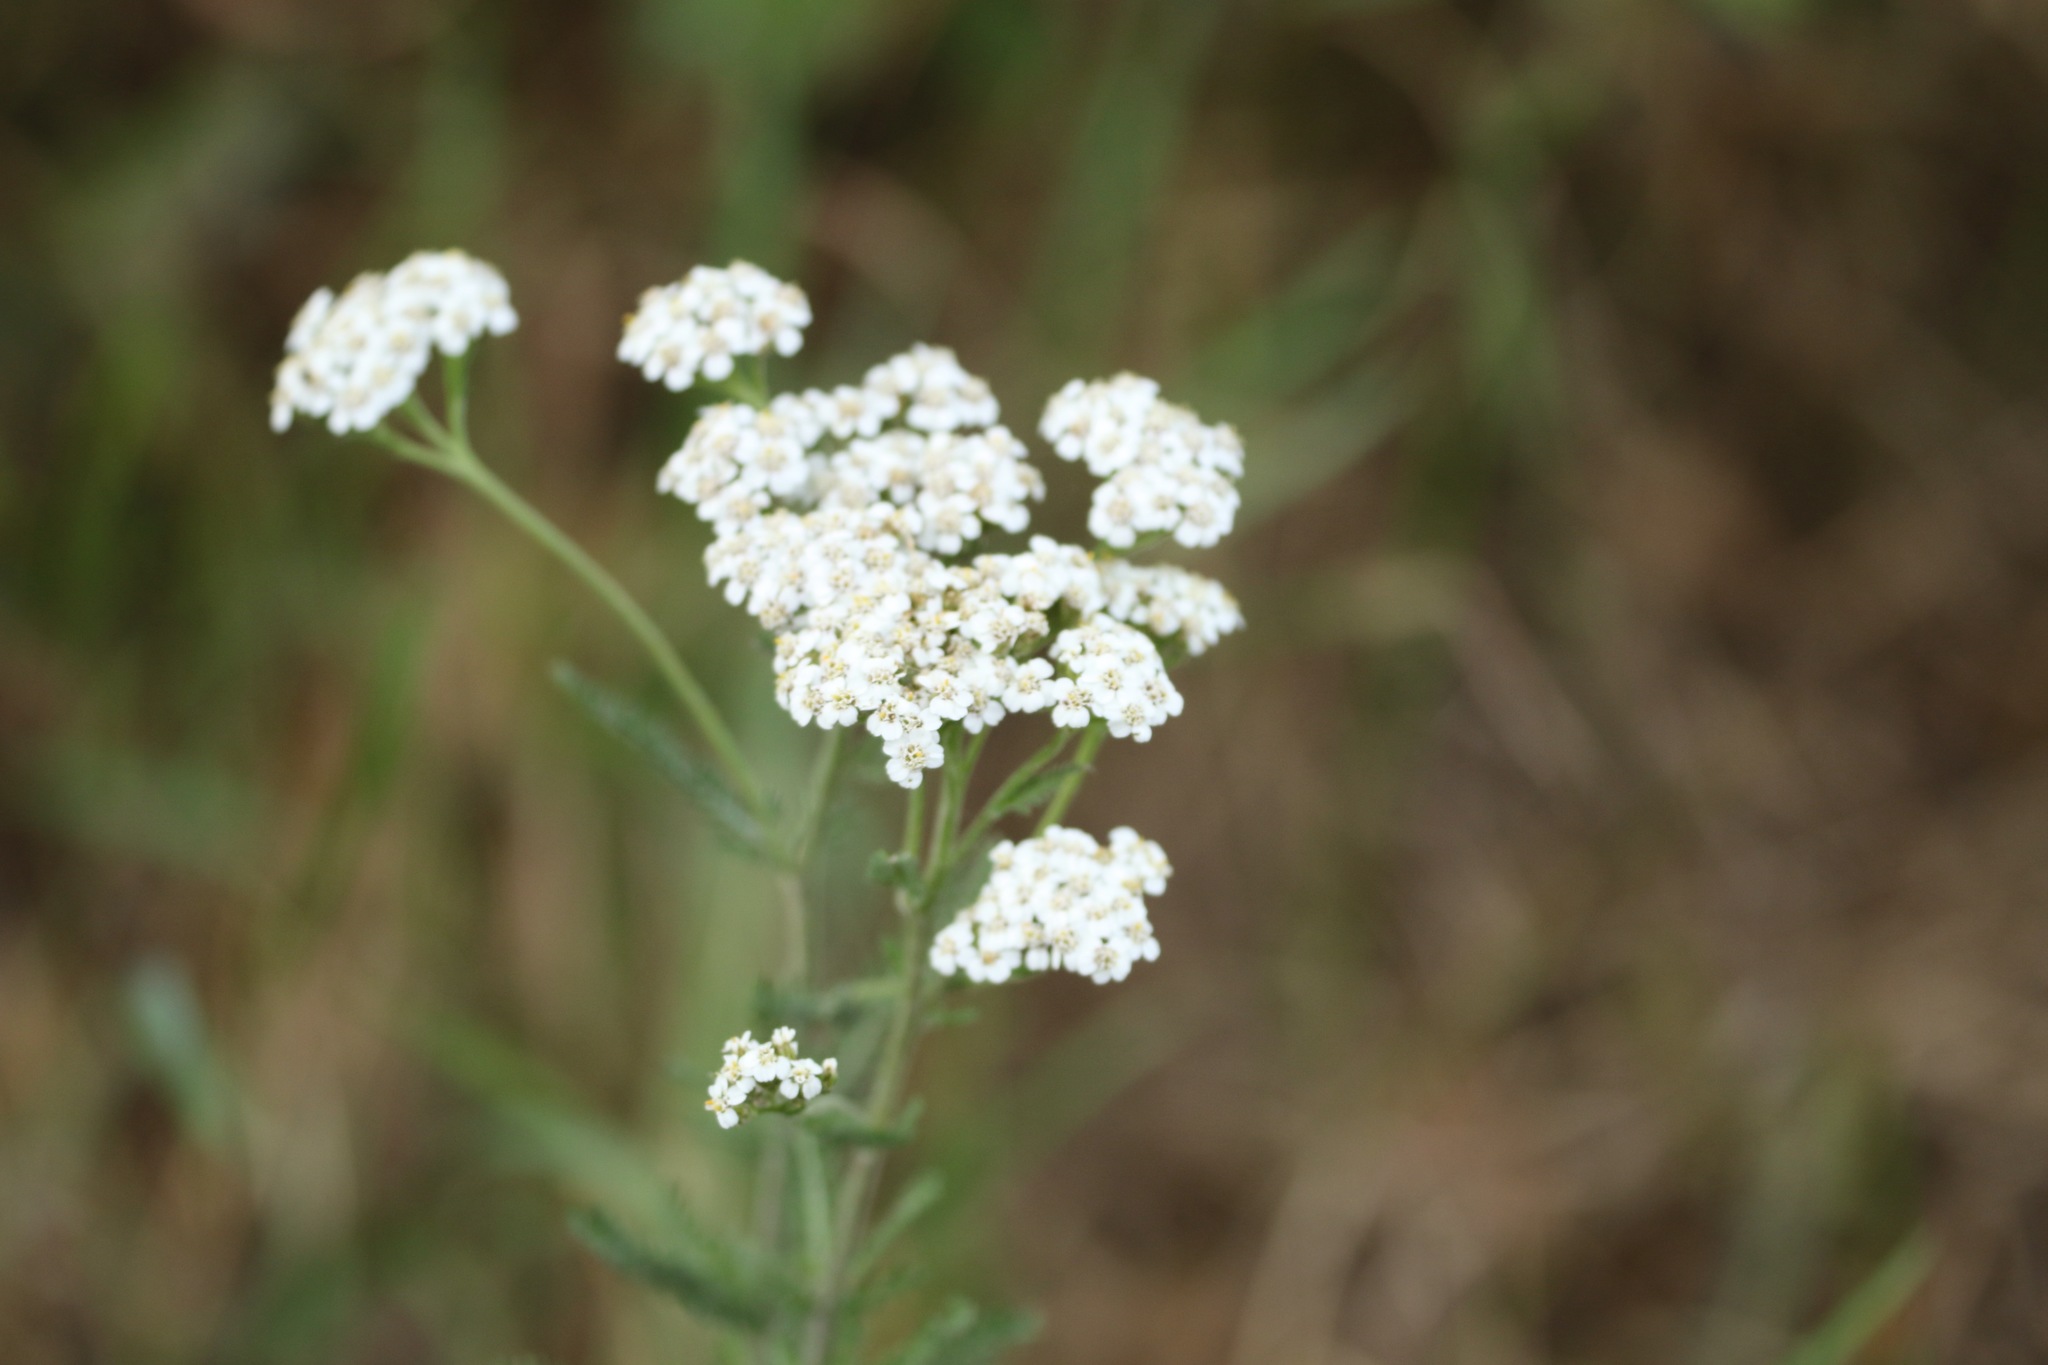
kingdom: Plantae
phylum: Tracheophyta
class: Magnoliopsida
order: Asterales
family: Asteraceae
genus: Achillea
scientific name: Achillea millefolium
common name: Yarrow
